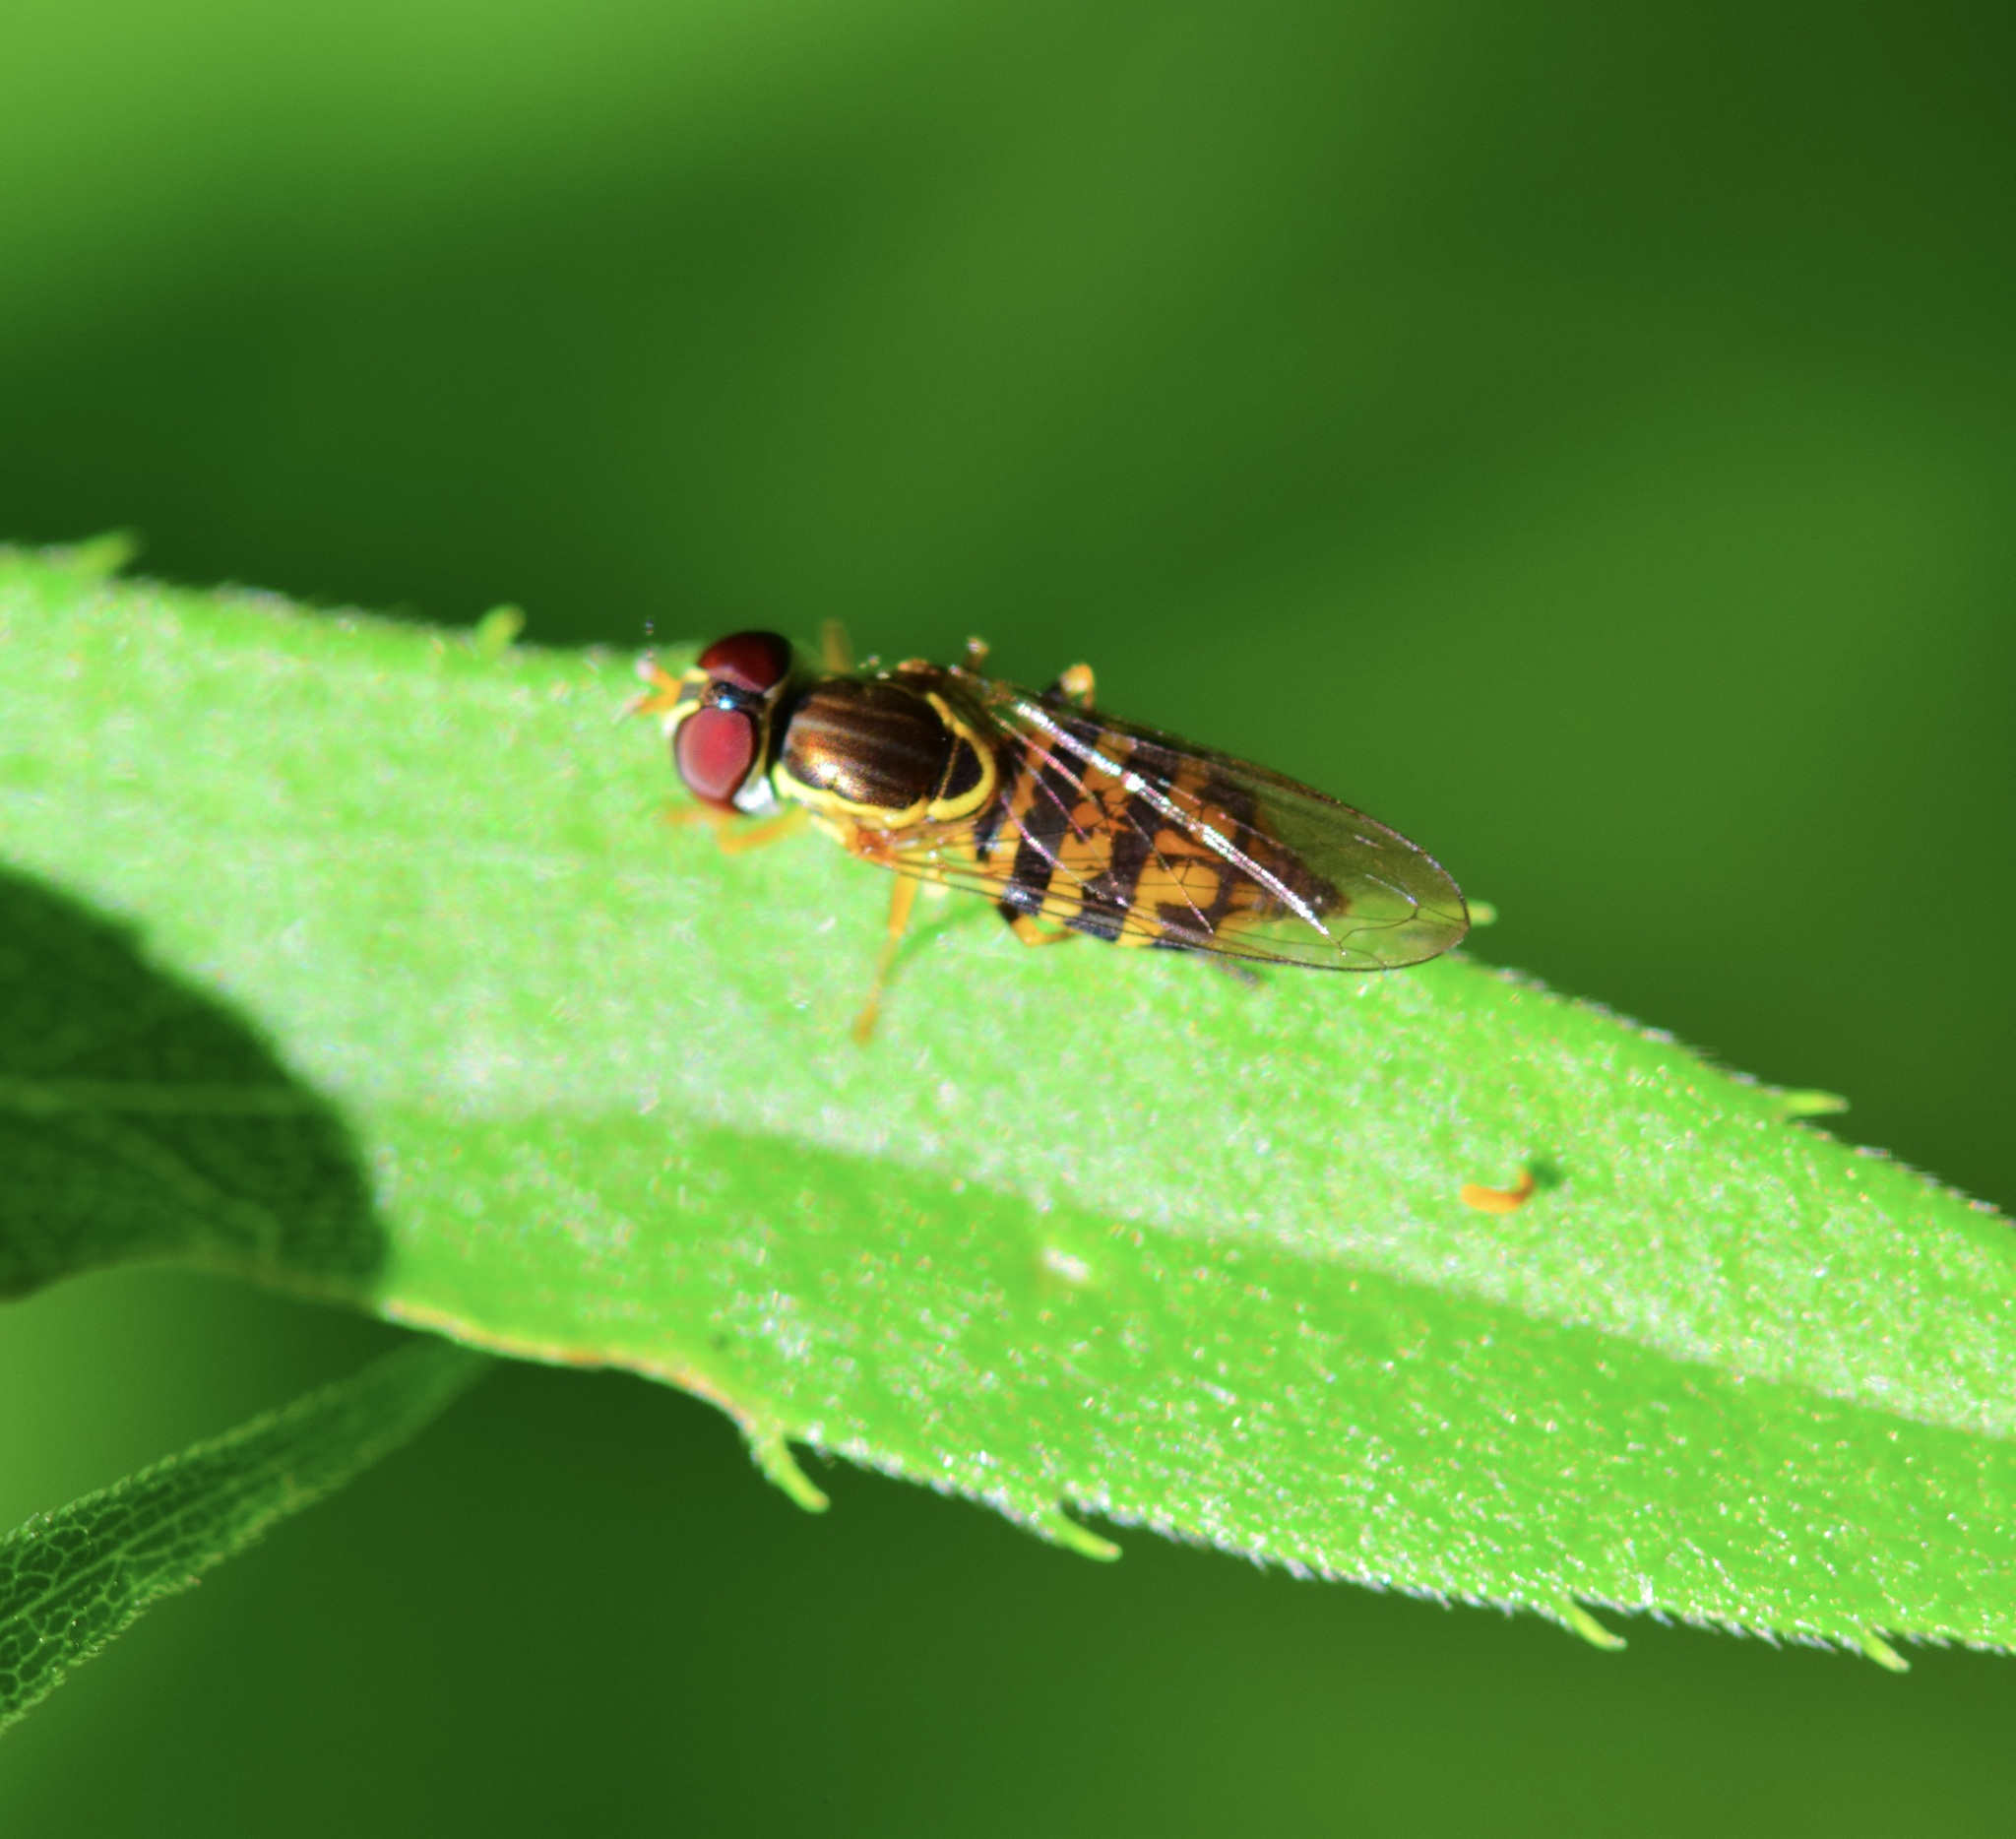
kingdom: Animalia
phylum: Arthropoda
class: Insecta
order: Diptera
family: Syrphidae
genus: Toxomerus
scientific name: Toxomerus geminatus
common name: Eastern calligrapher
